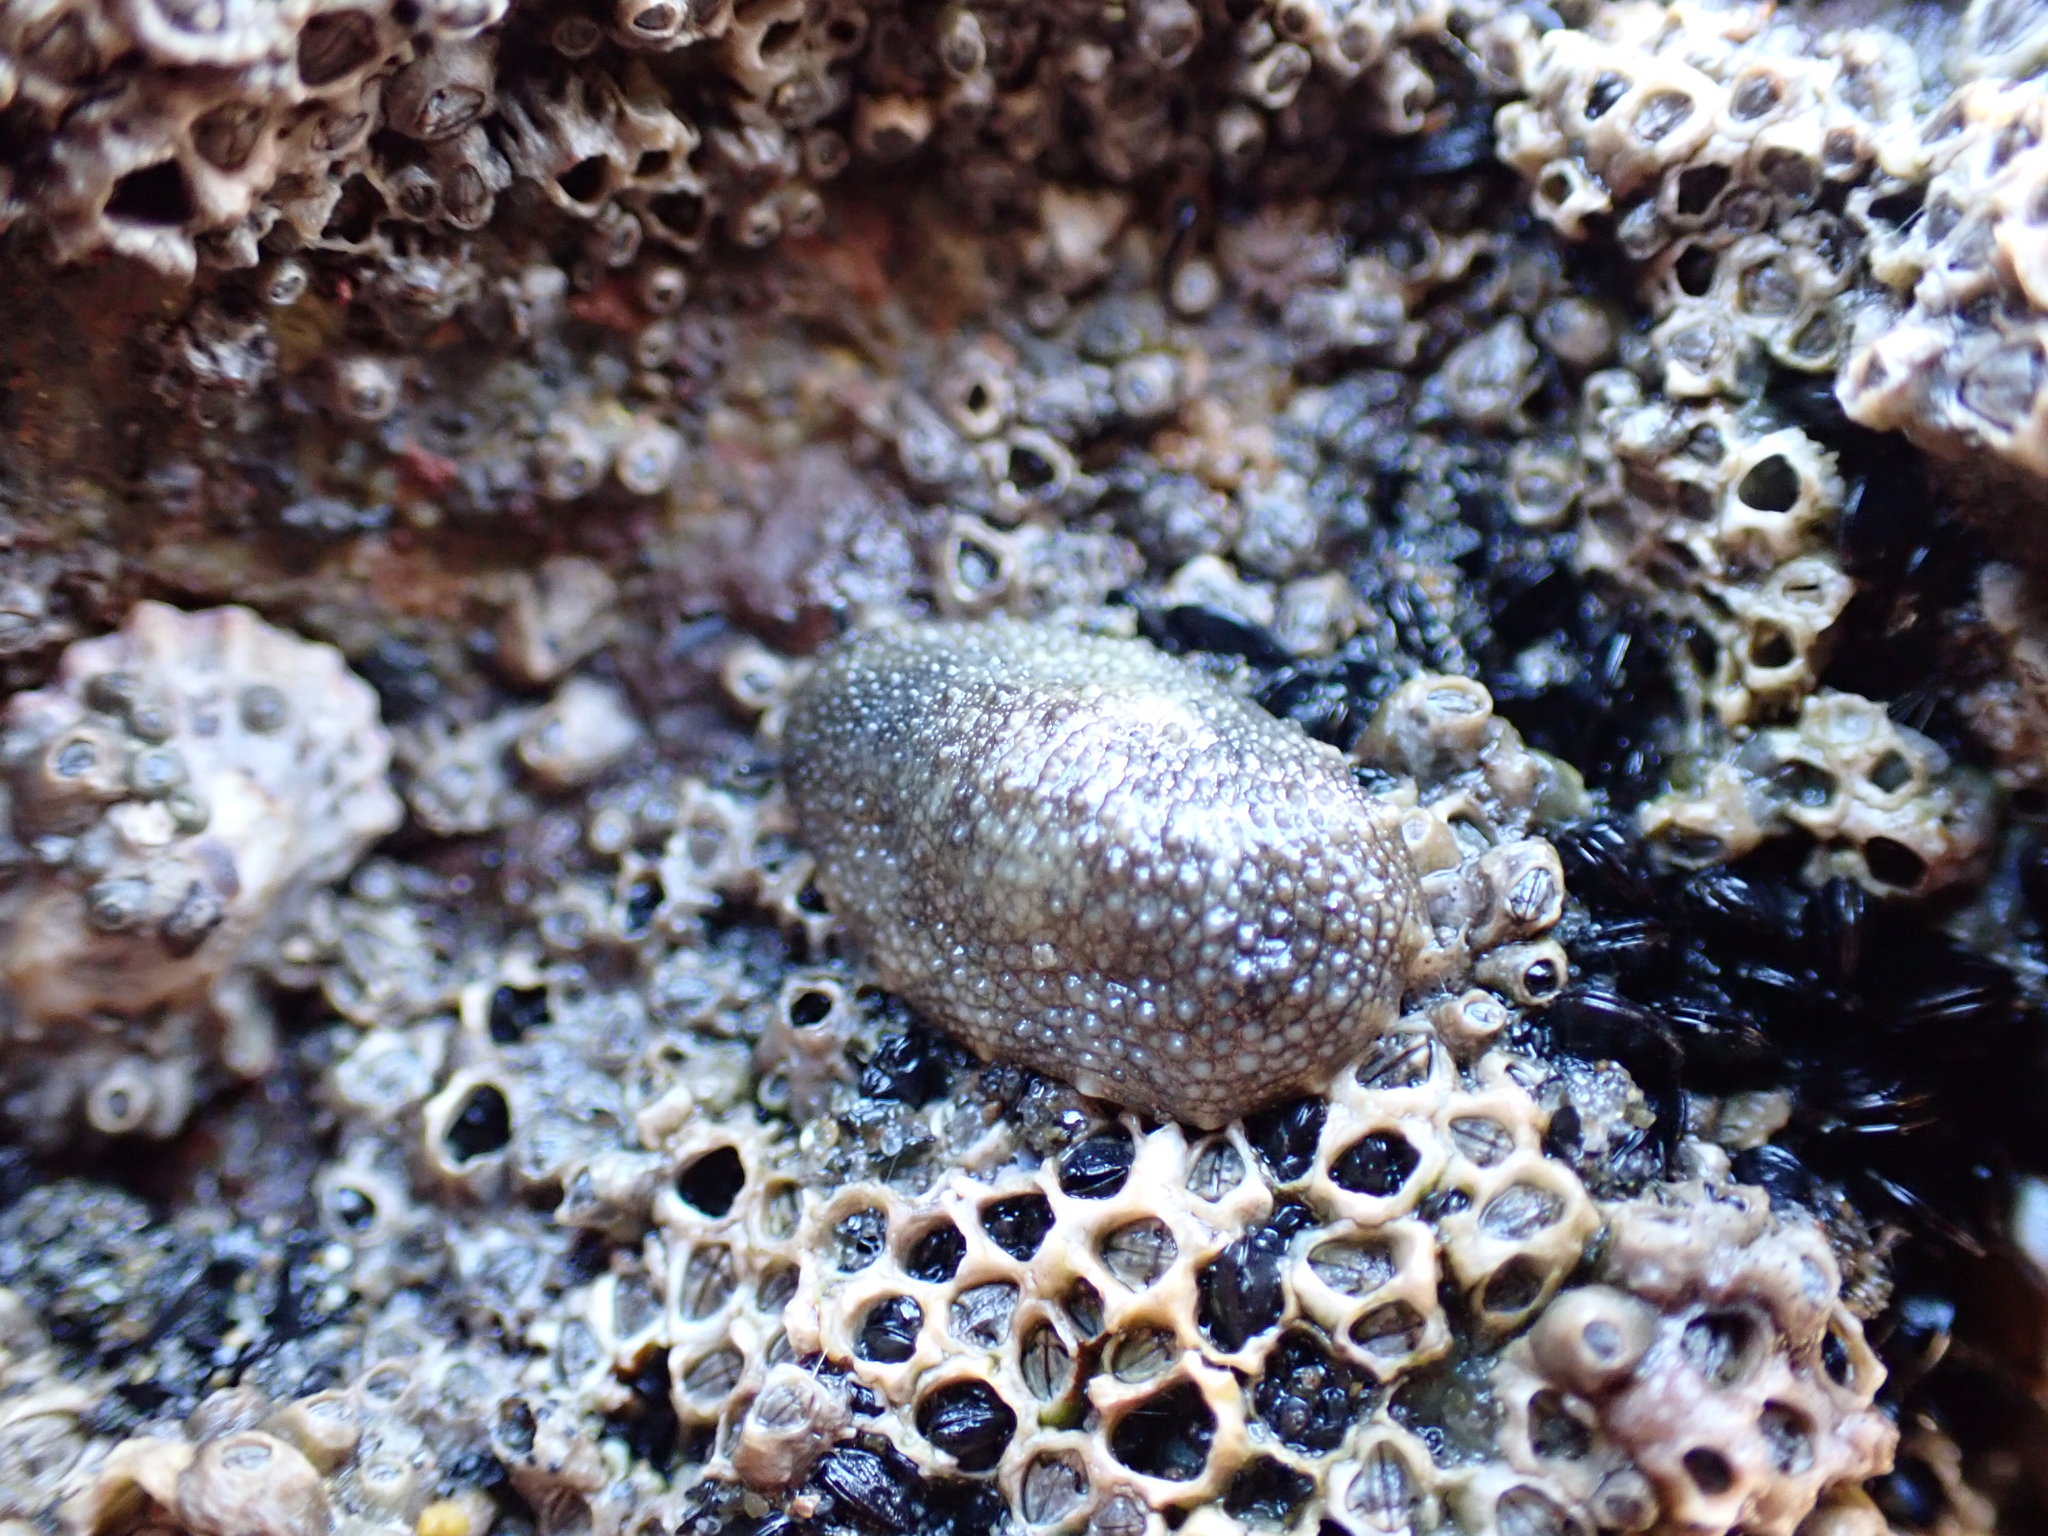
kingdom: Animalia
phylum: Mollusca
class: Gastropoda
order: Systellommatophora
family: Onchidiidae
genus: Onchidella
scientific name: Onchidella nigricans
